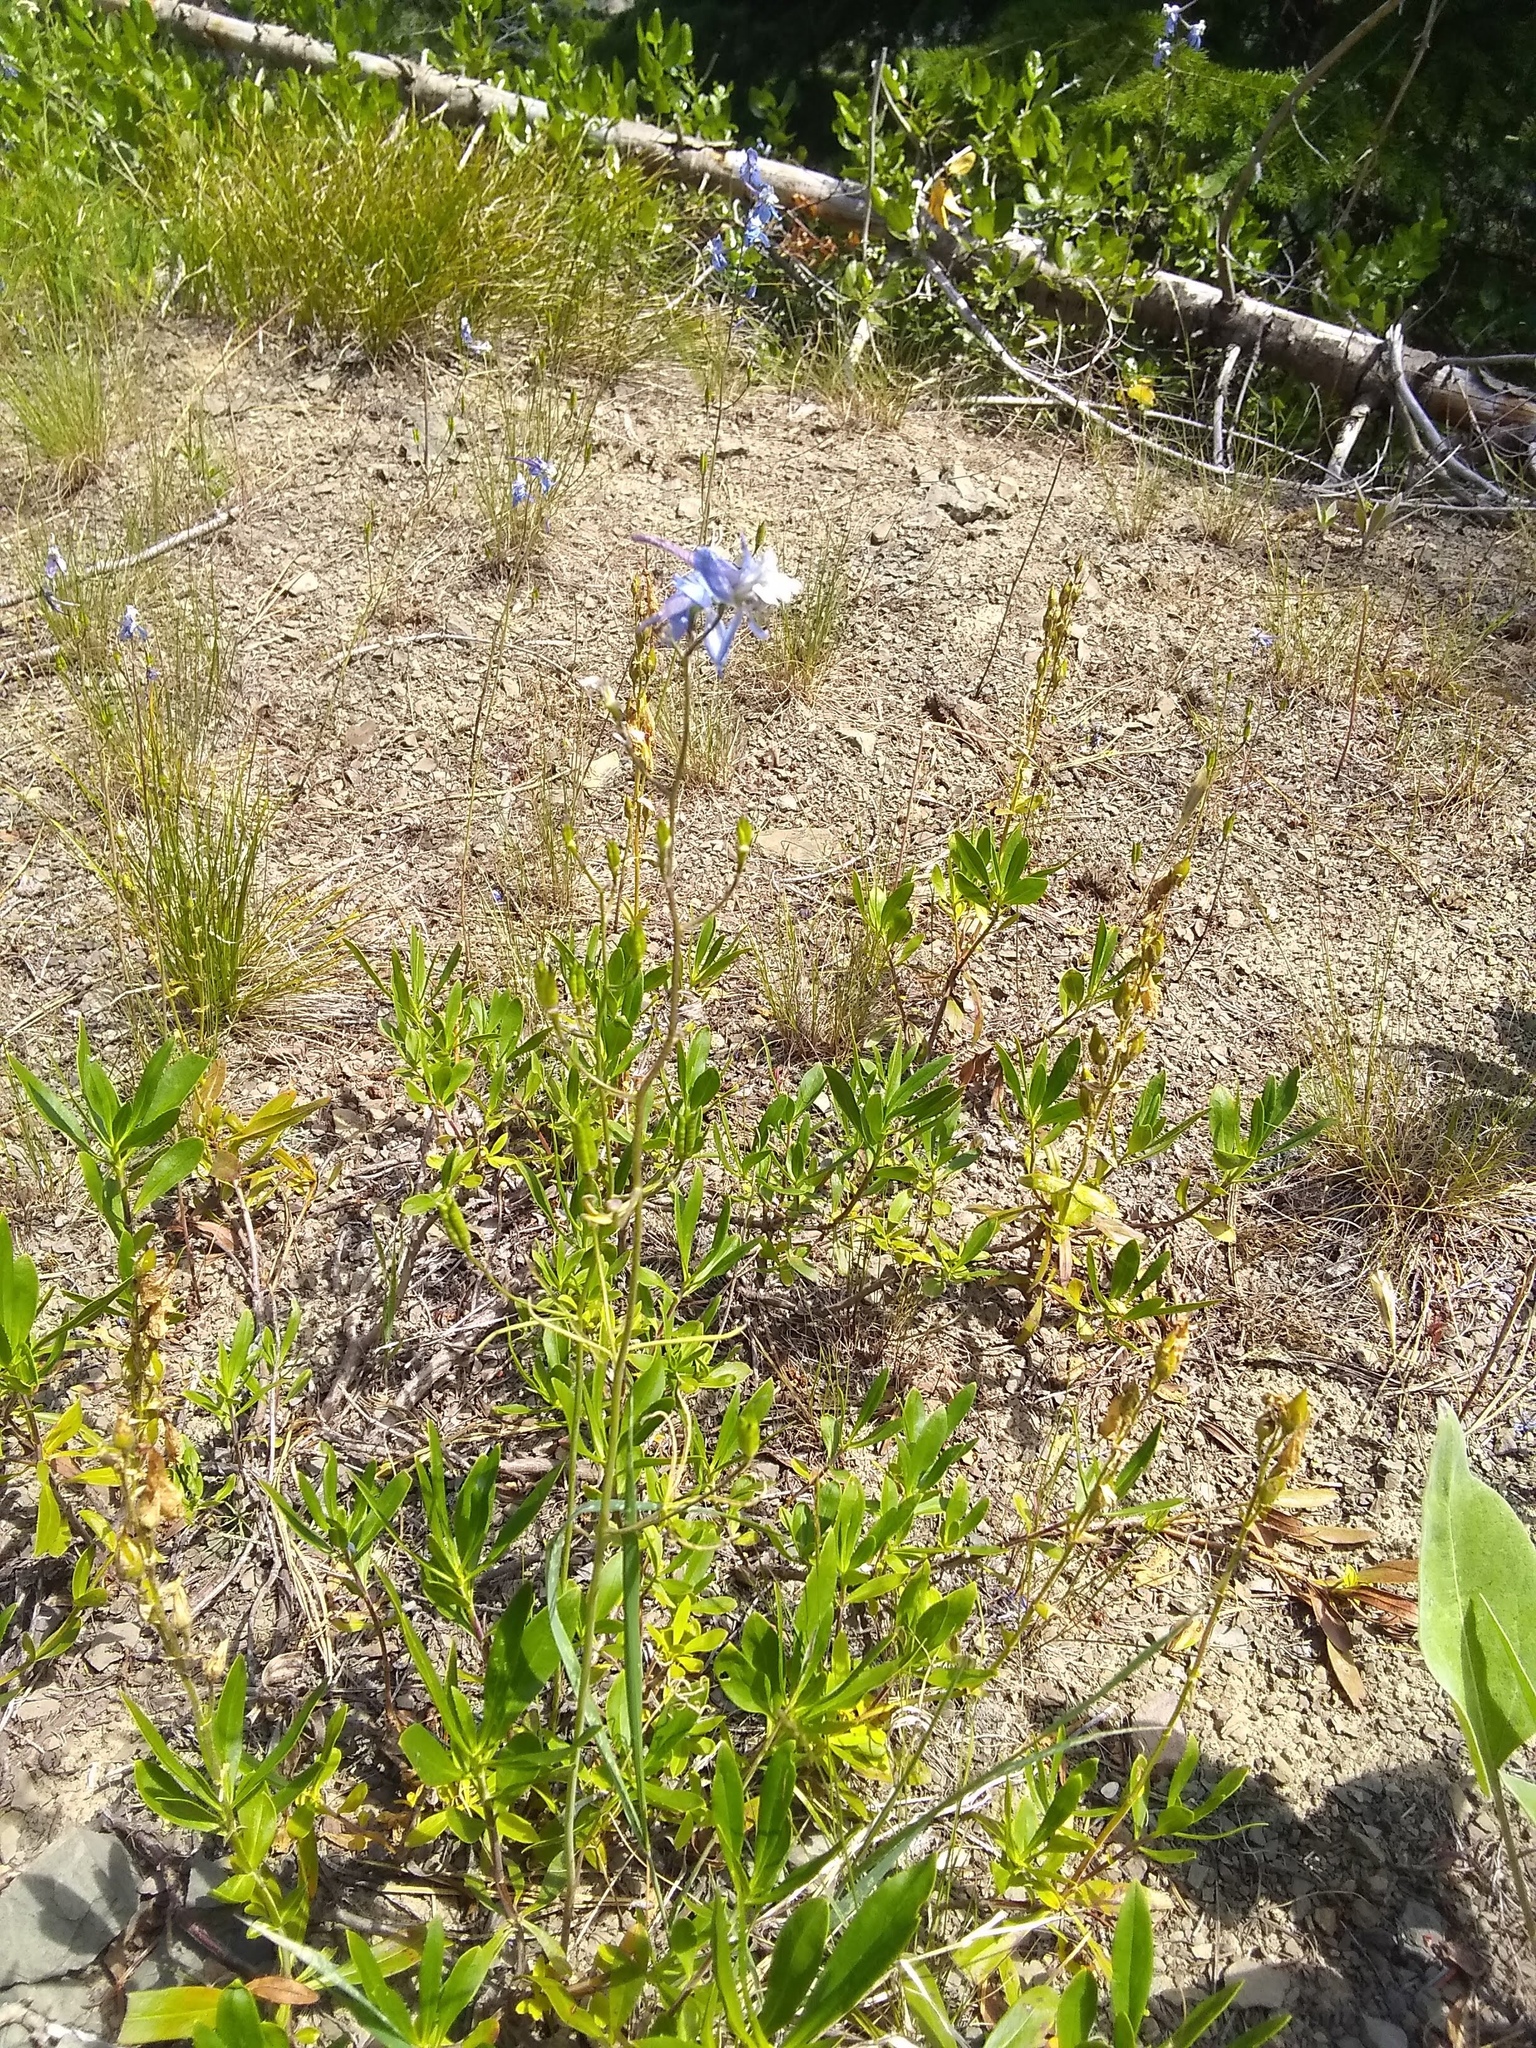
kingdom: Plantae
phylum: Tracheophyta
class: Magnoliopsida
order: Ranunculales
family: Ranunculaceae
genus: Delphinium
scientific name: Delphinium lineapetalum
